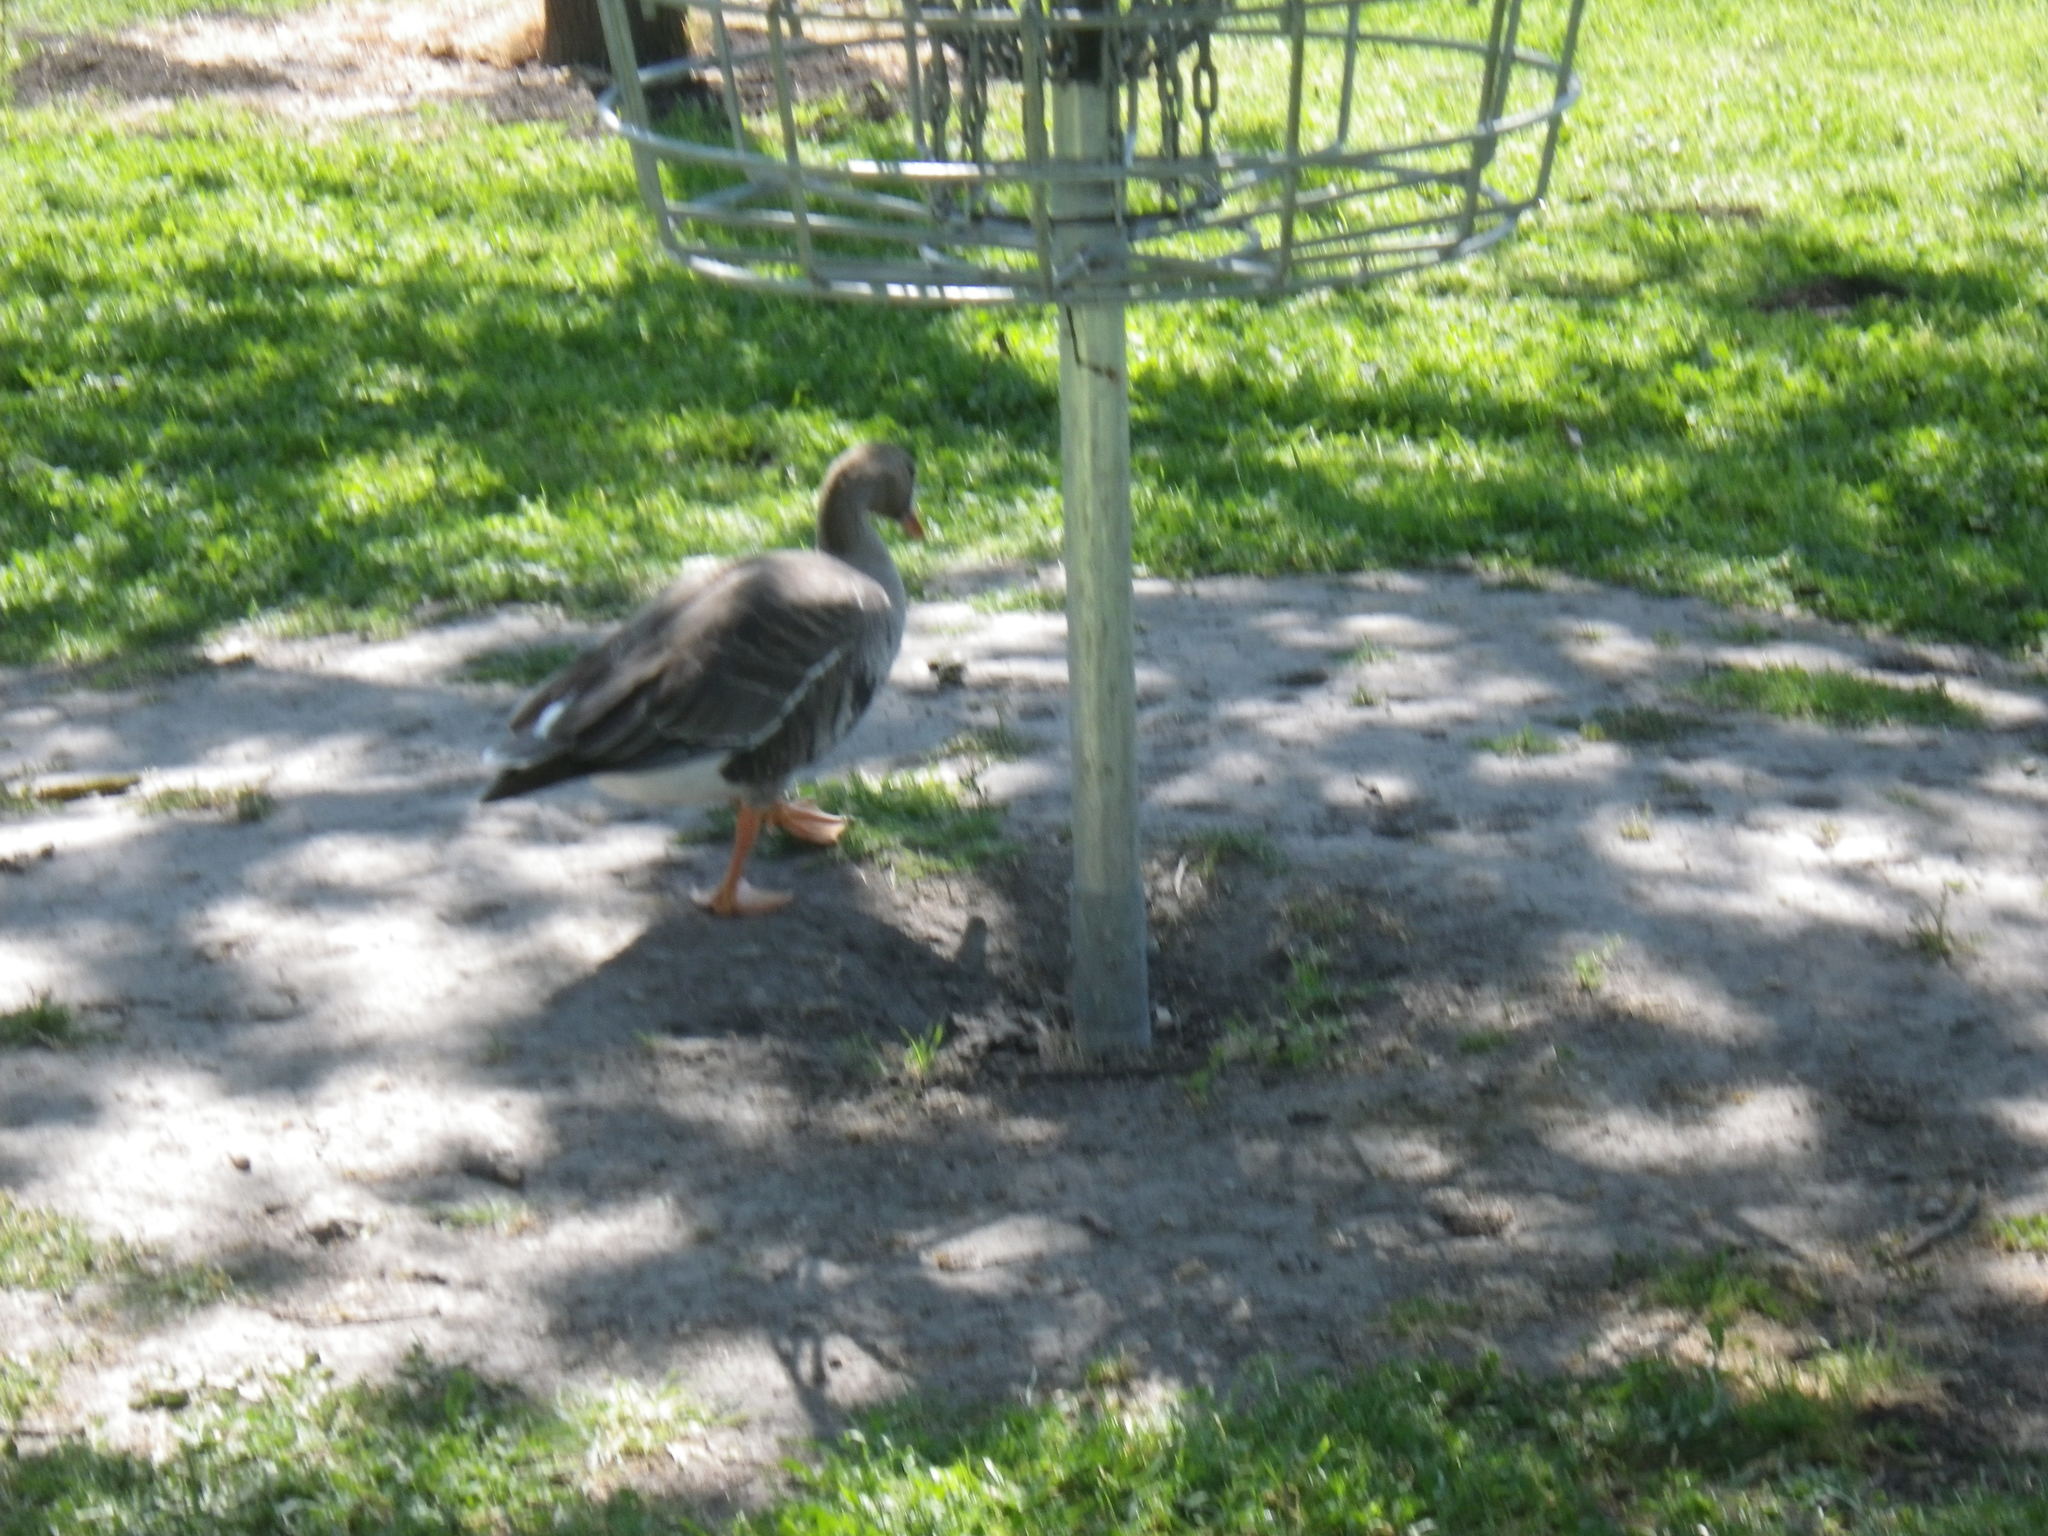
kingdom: Animalia
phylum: Chordata
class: Aves
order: Anseriformes
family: Anatidae
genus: Anser
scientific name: Anser albifrons
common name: Greater white-fronted goose
